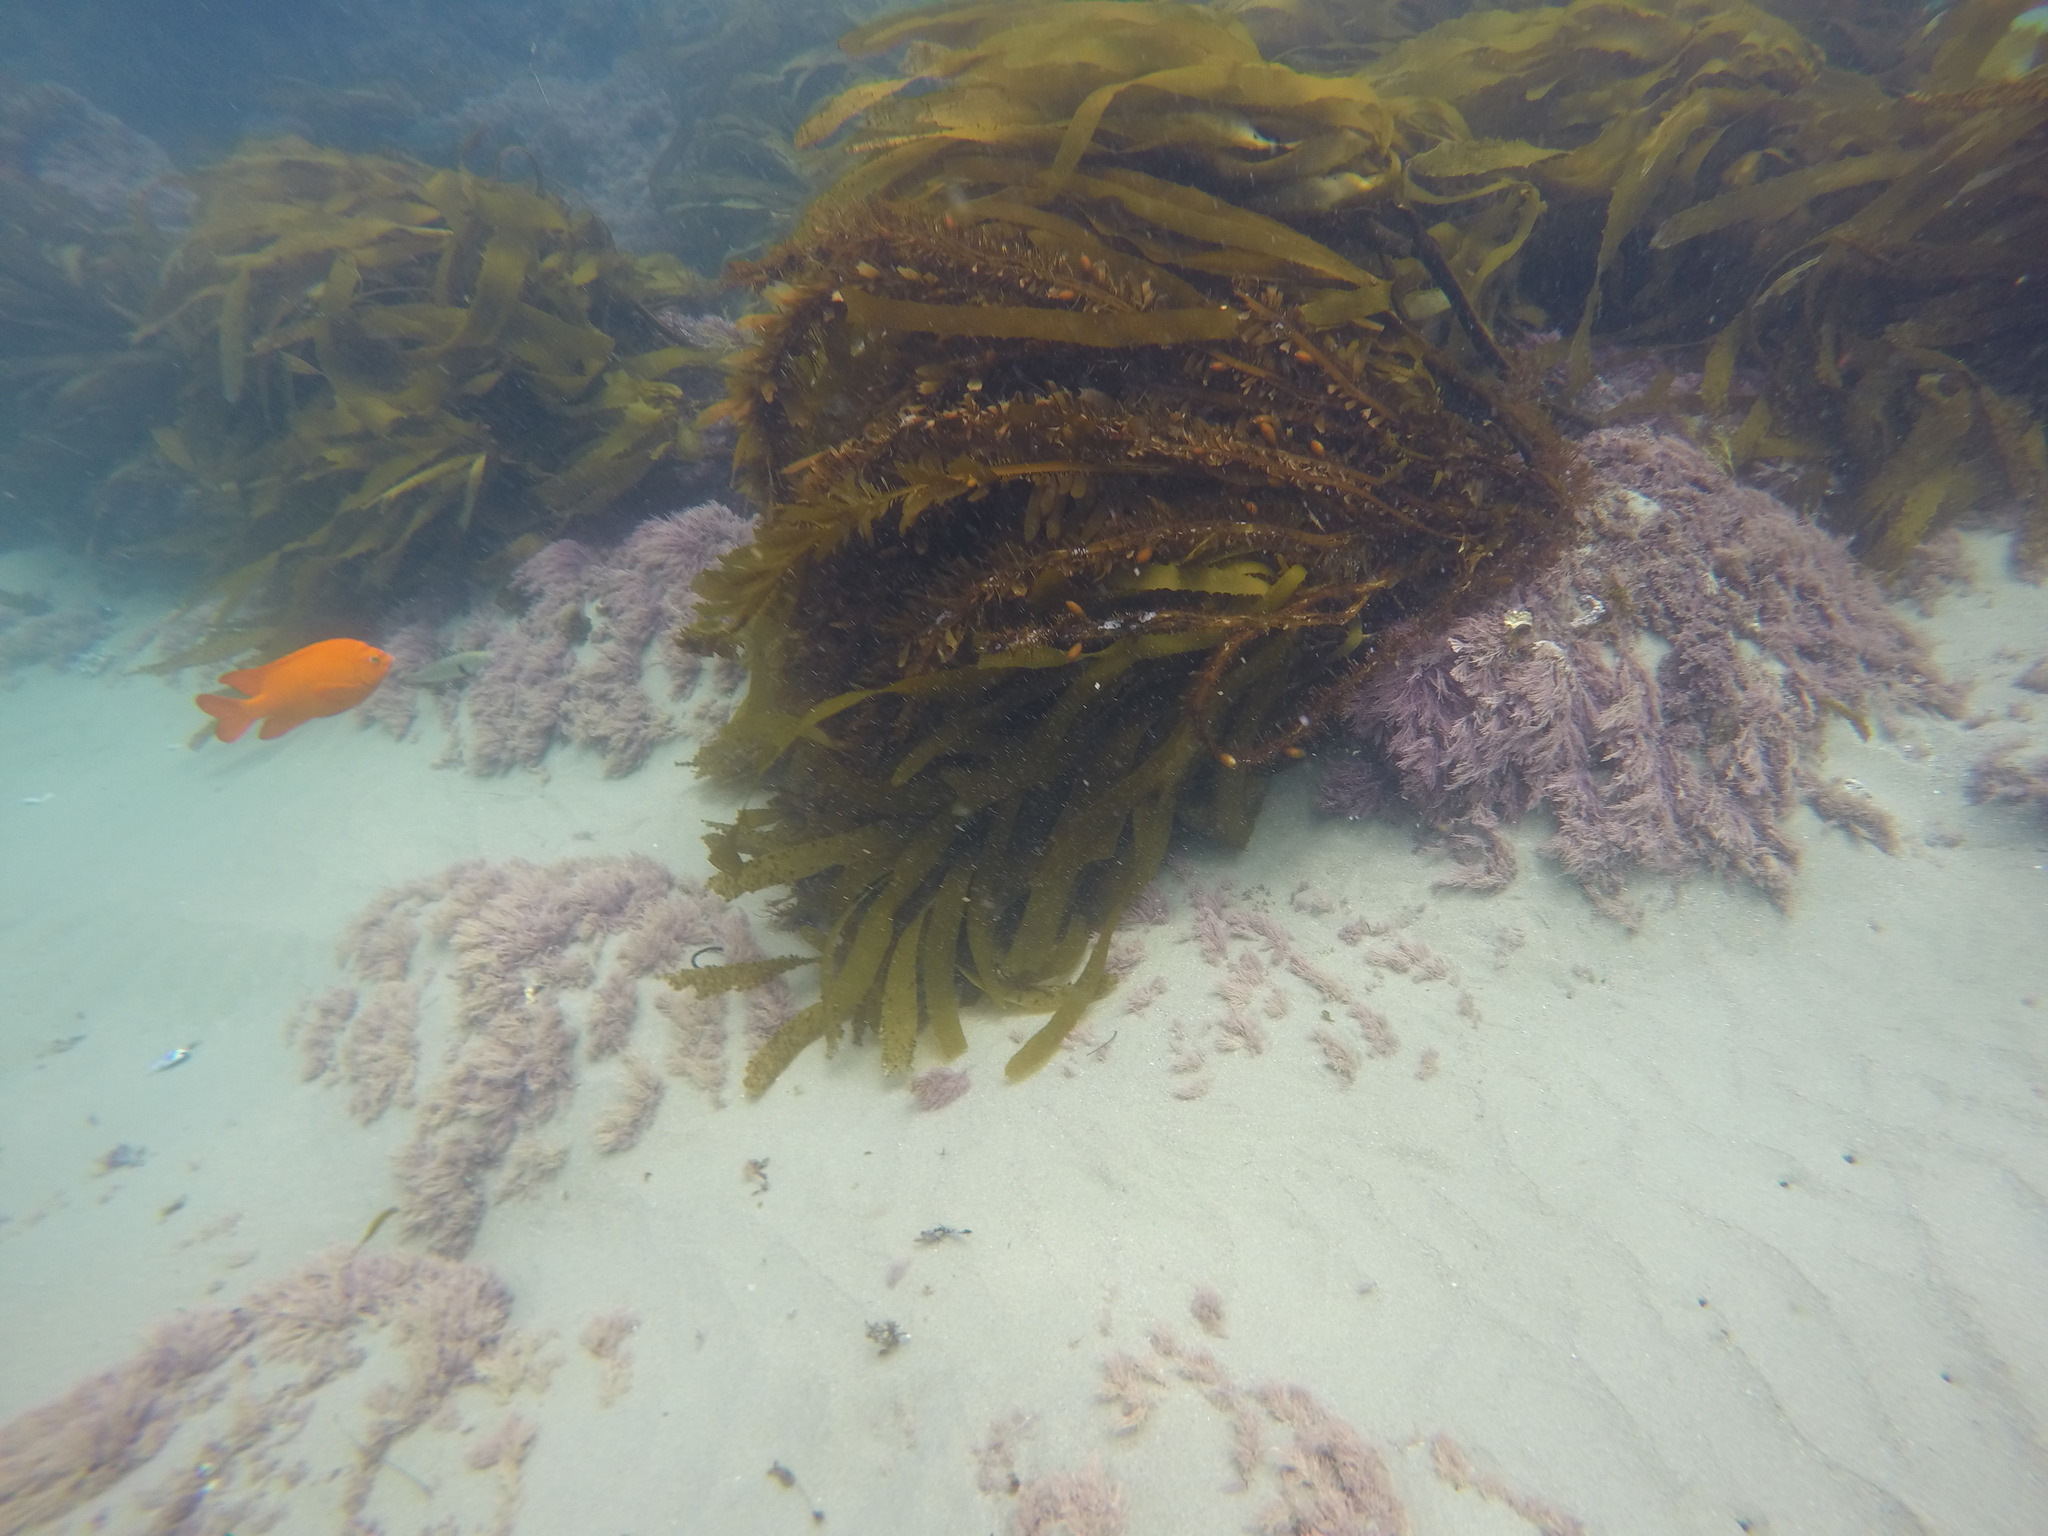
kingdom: Chromista
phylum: Ochrophyta
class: Phaeophyceae
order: Laminariales
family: Lessoniaceae
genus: Egregia
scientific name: Egregia menziesii
